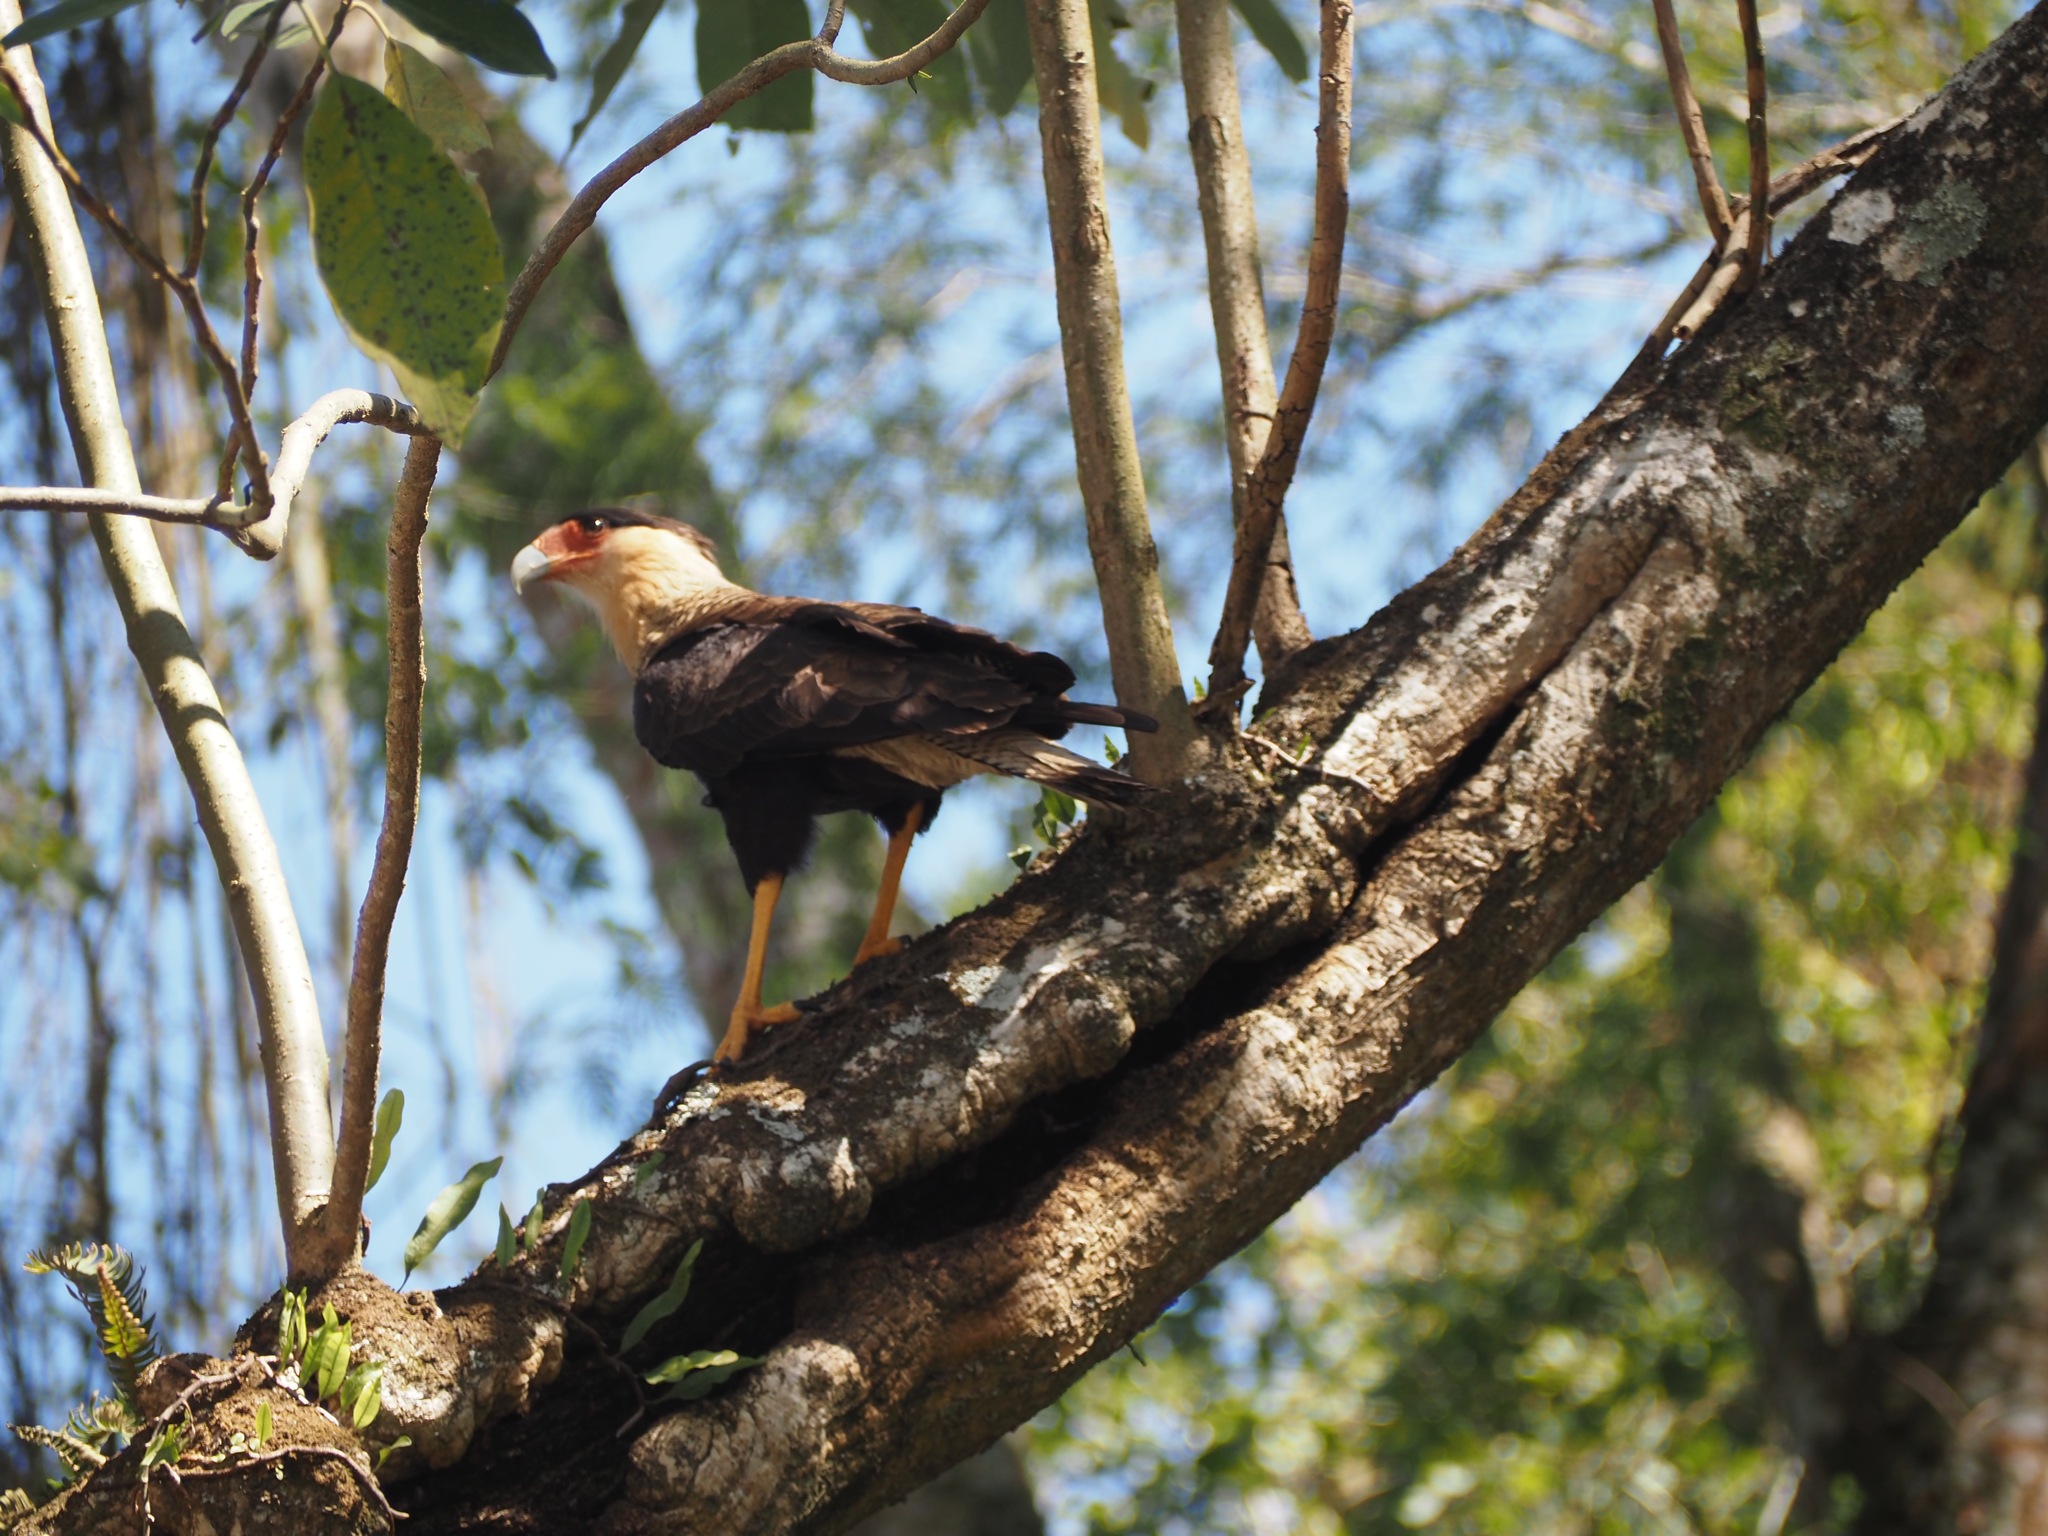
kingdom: Animalia
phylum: Chordata
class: Aves
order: Falconiformes
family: Falconidae
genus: Caracara
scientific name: Caracara plancus
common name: Southern caracara
